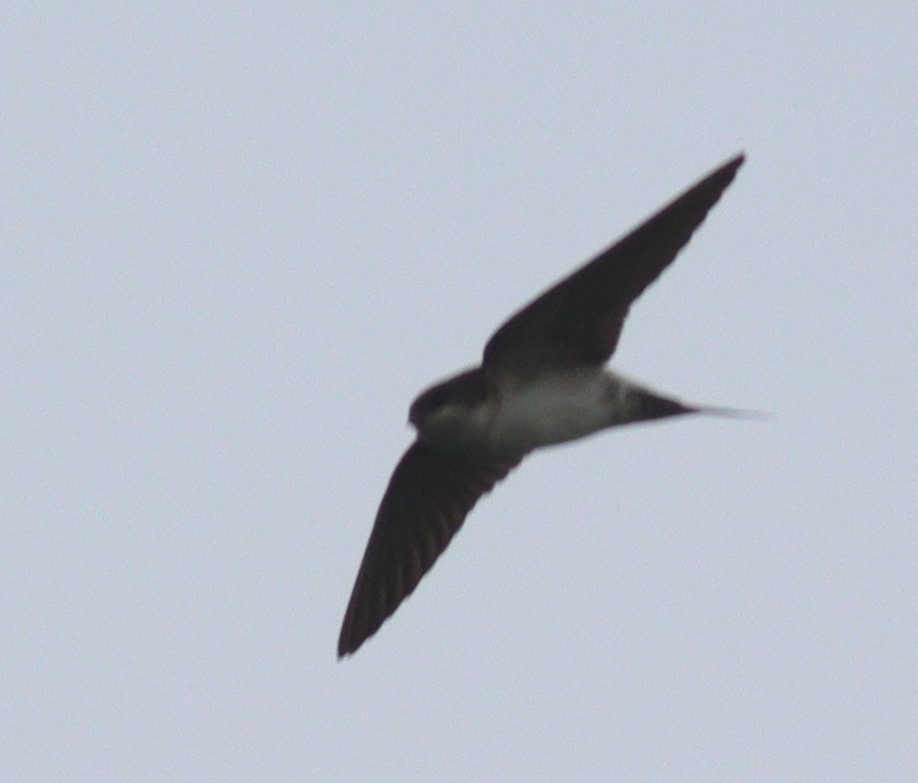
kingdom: Animalia
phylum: Chordata
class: Aves
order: Passeriformes
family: Hirundinidae
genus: Delichon
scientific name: Delichon urbicum
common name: Common house martin
